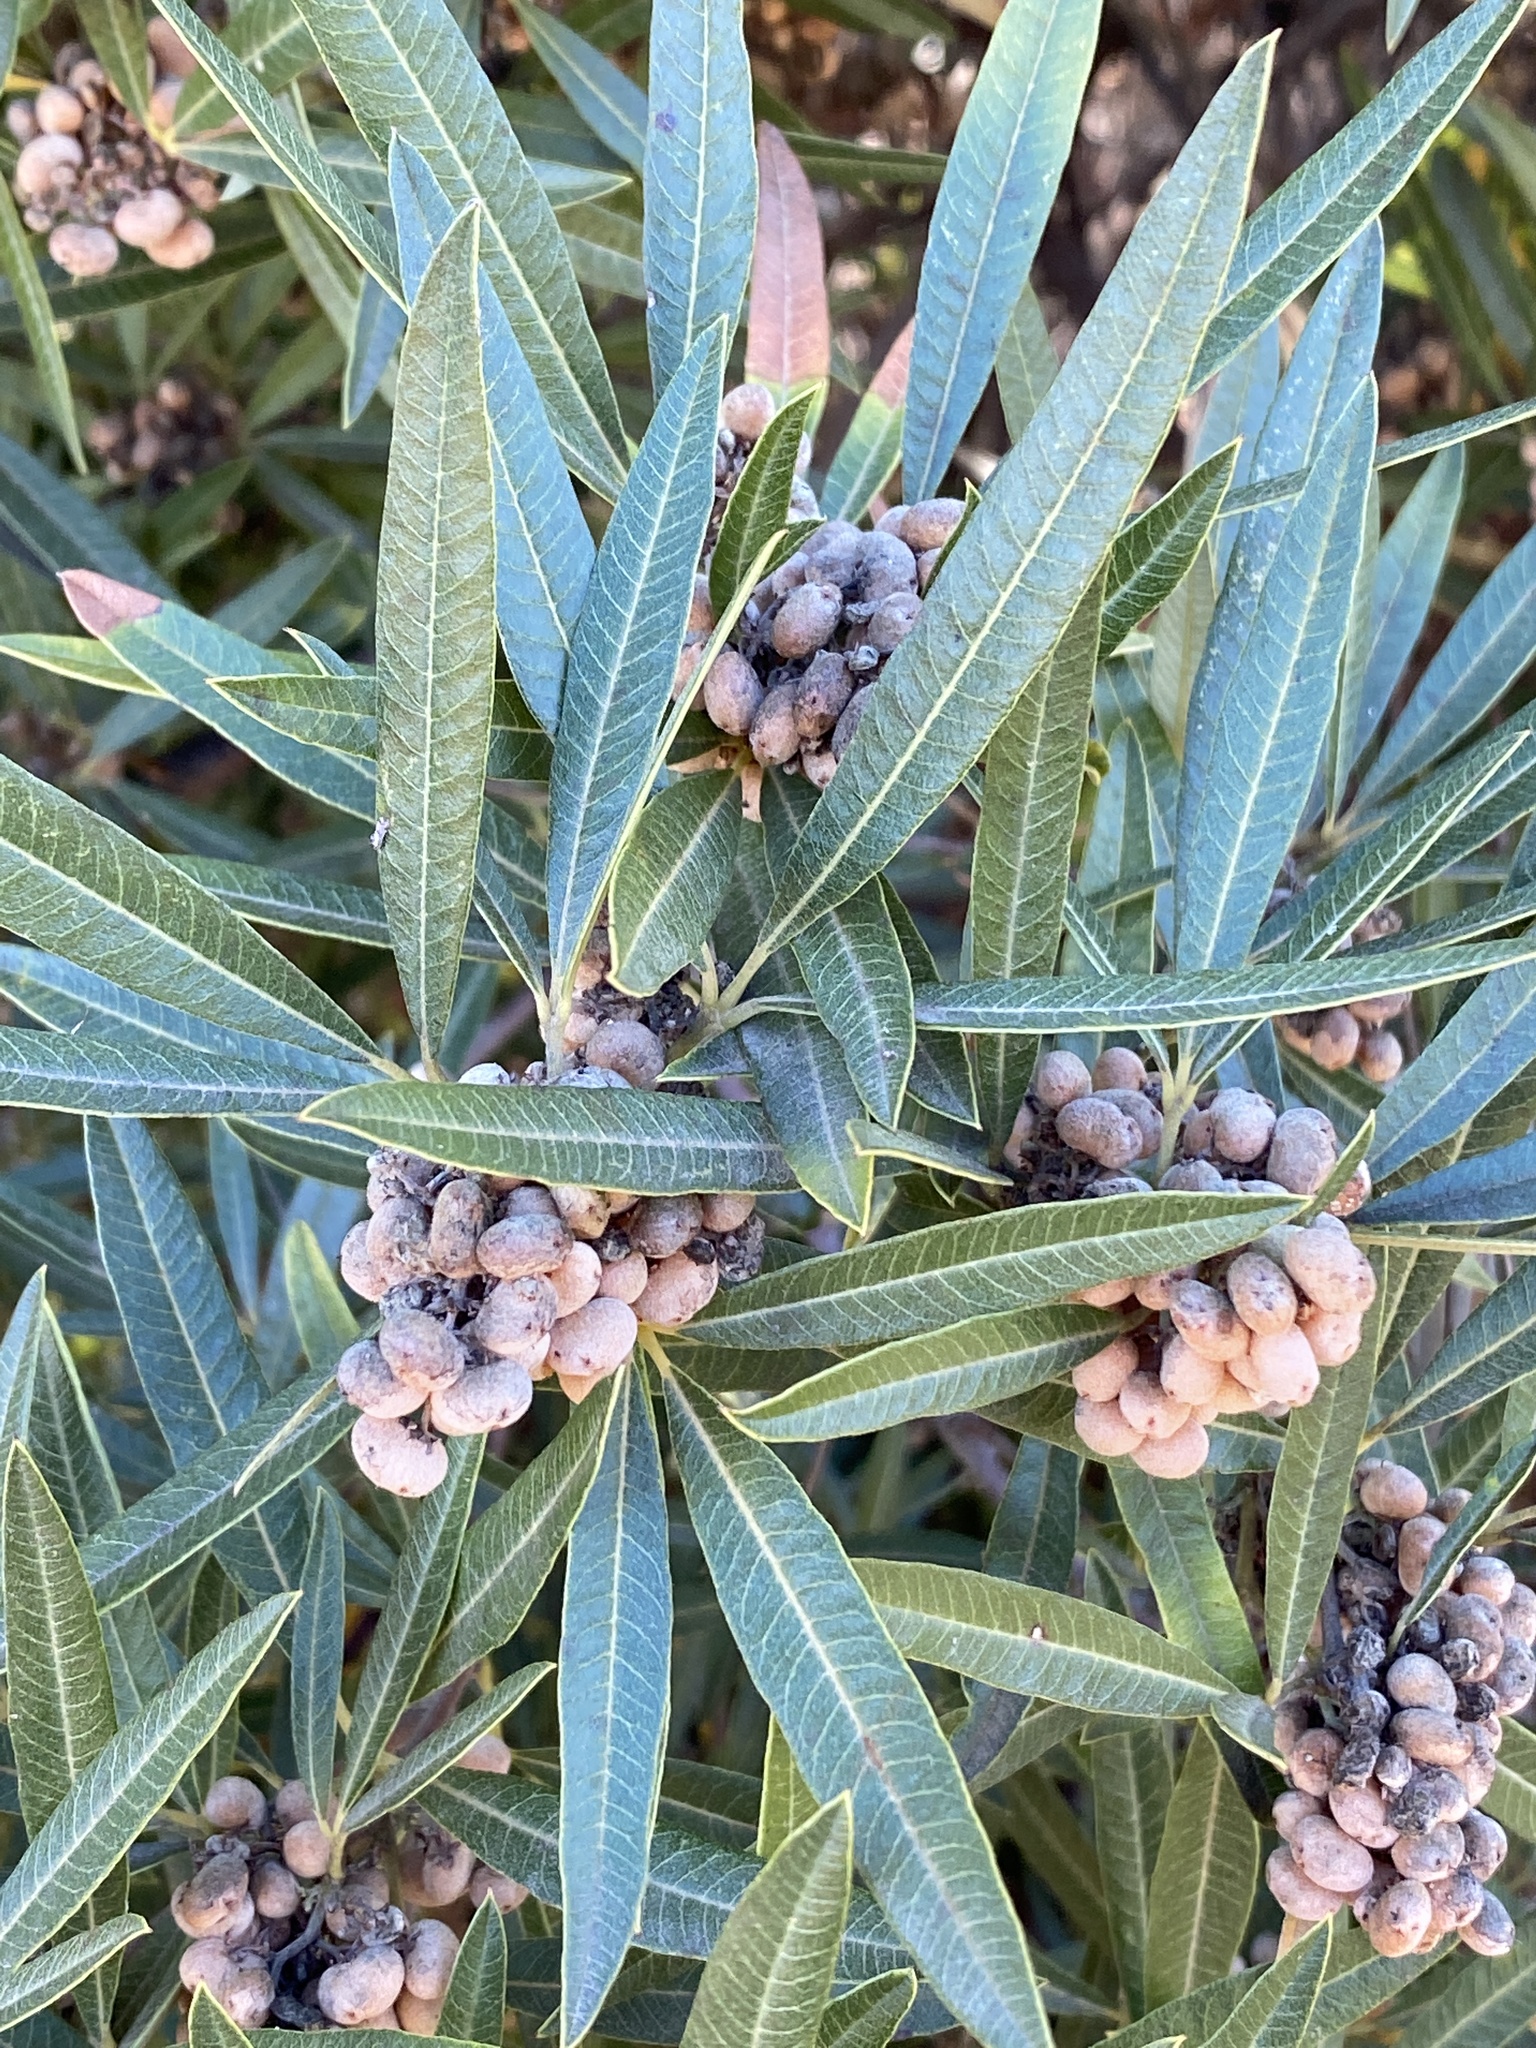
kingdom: Plantae
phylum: Tracheophyta
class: Magnoliopsida
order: Sapindales
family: Anacardiaceae
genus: Searsia
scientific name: Searsia angustifolia
